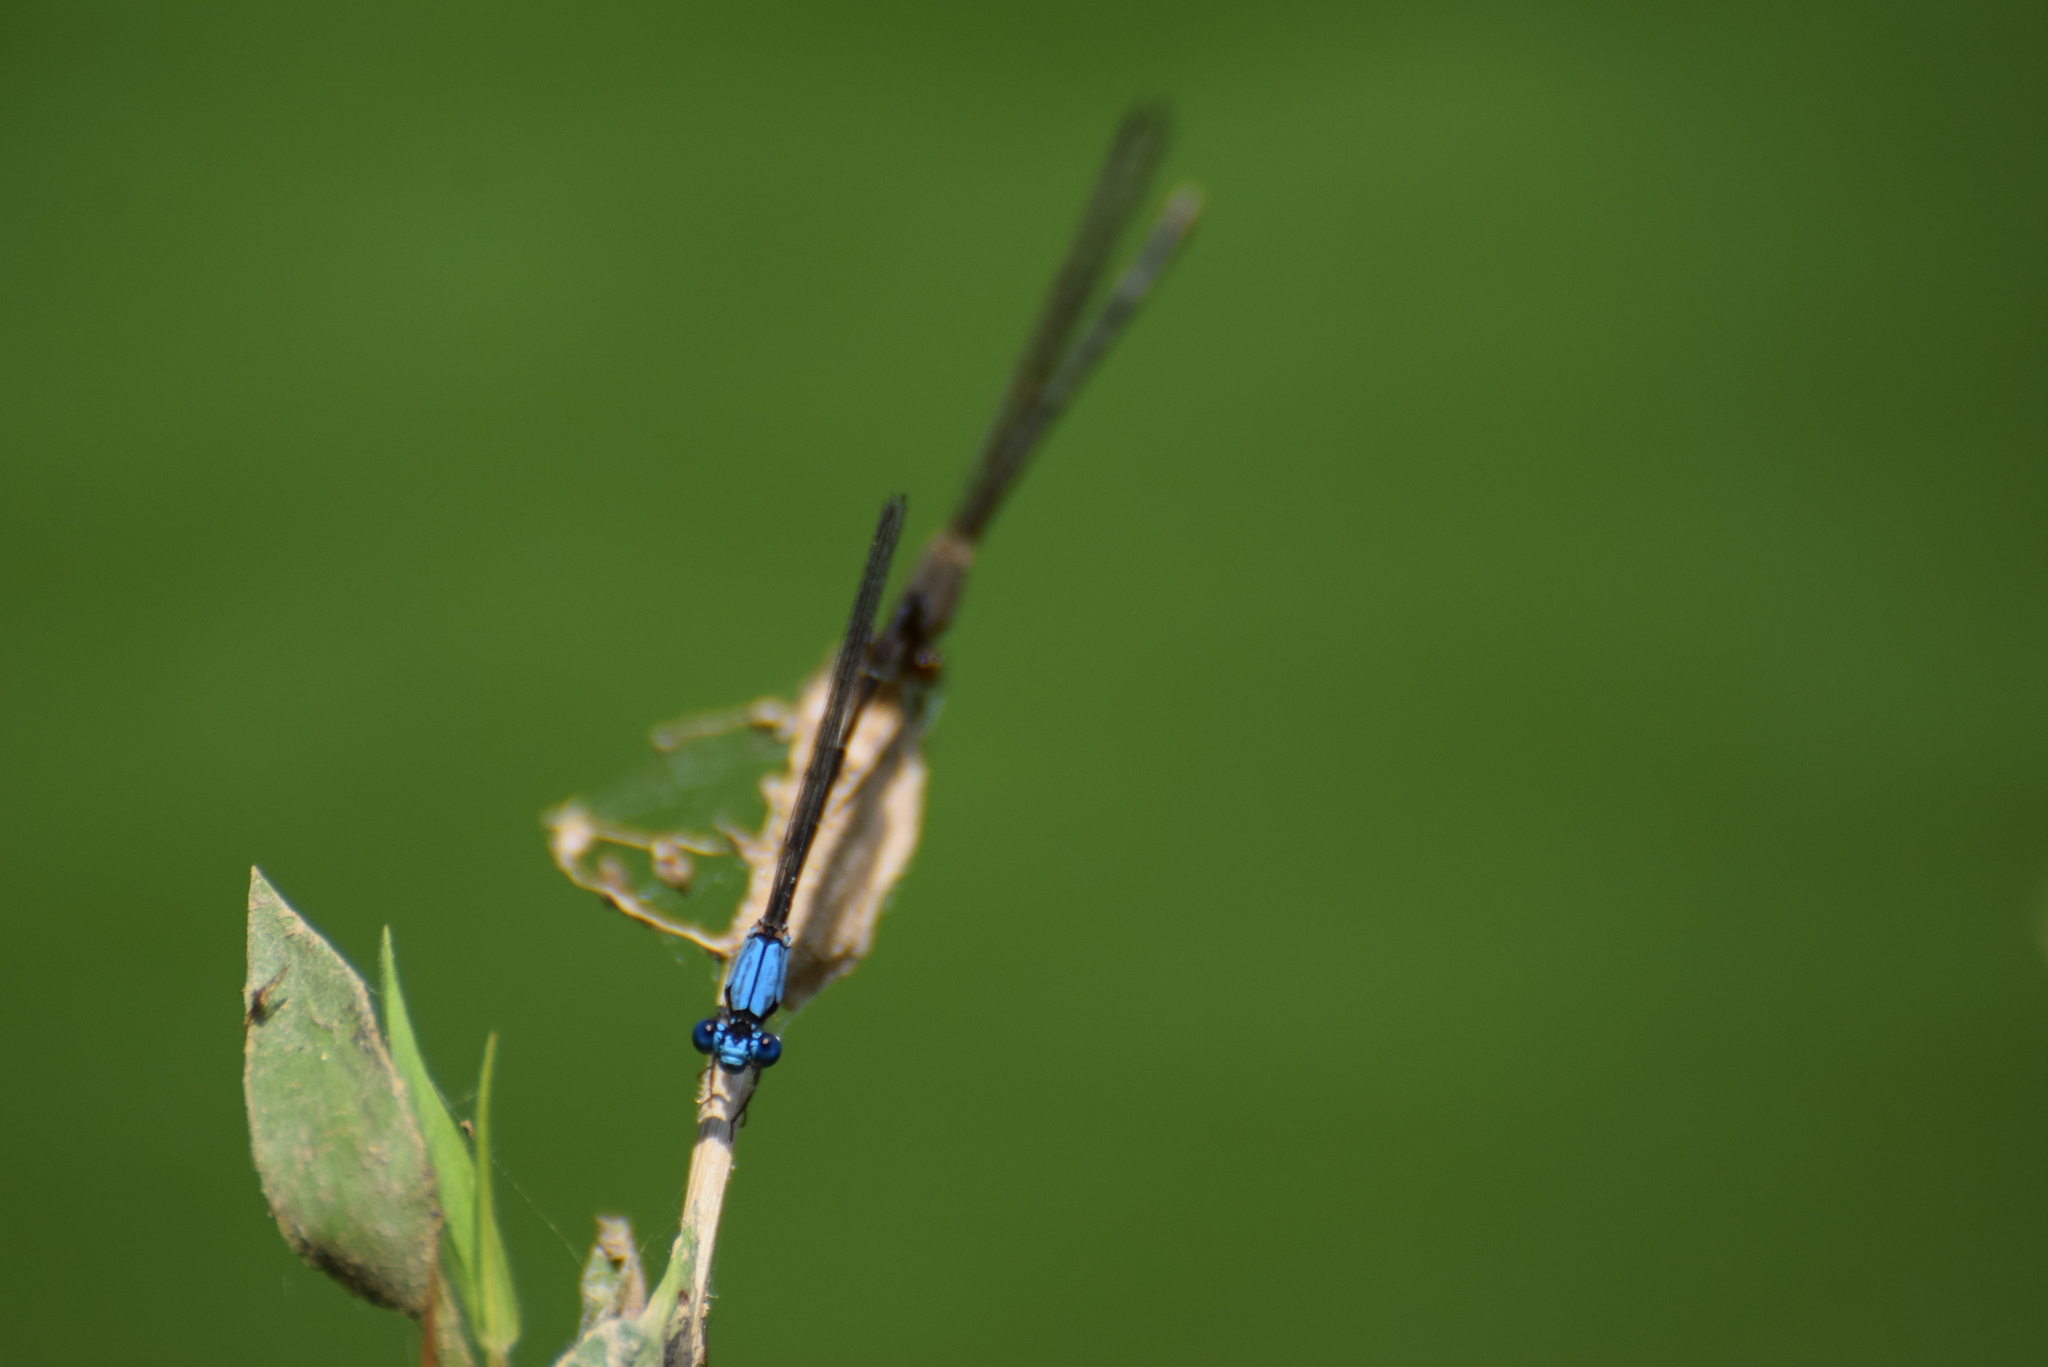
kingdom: Animalia
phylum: Arthropoda
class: Insecta
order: Odonata
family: Coenagrionidae
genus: Argia
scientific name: Argia apicalis
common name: Blue-fronted dancer
